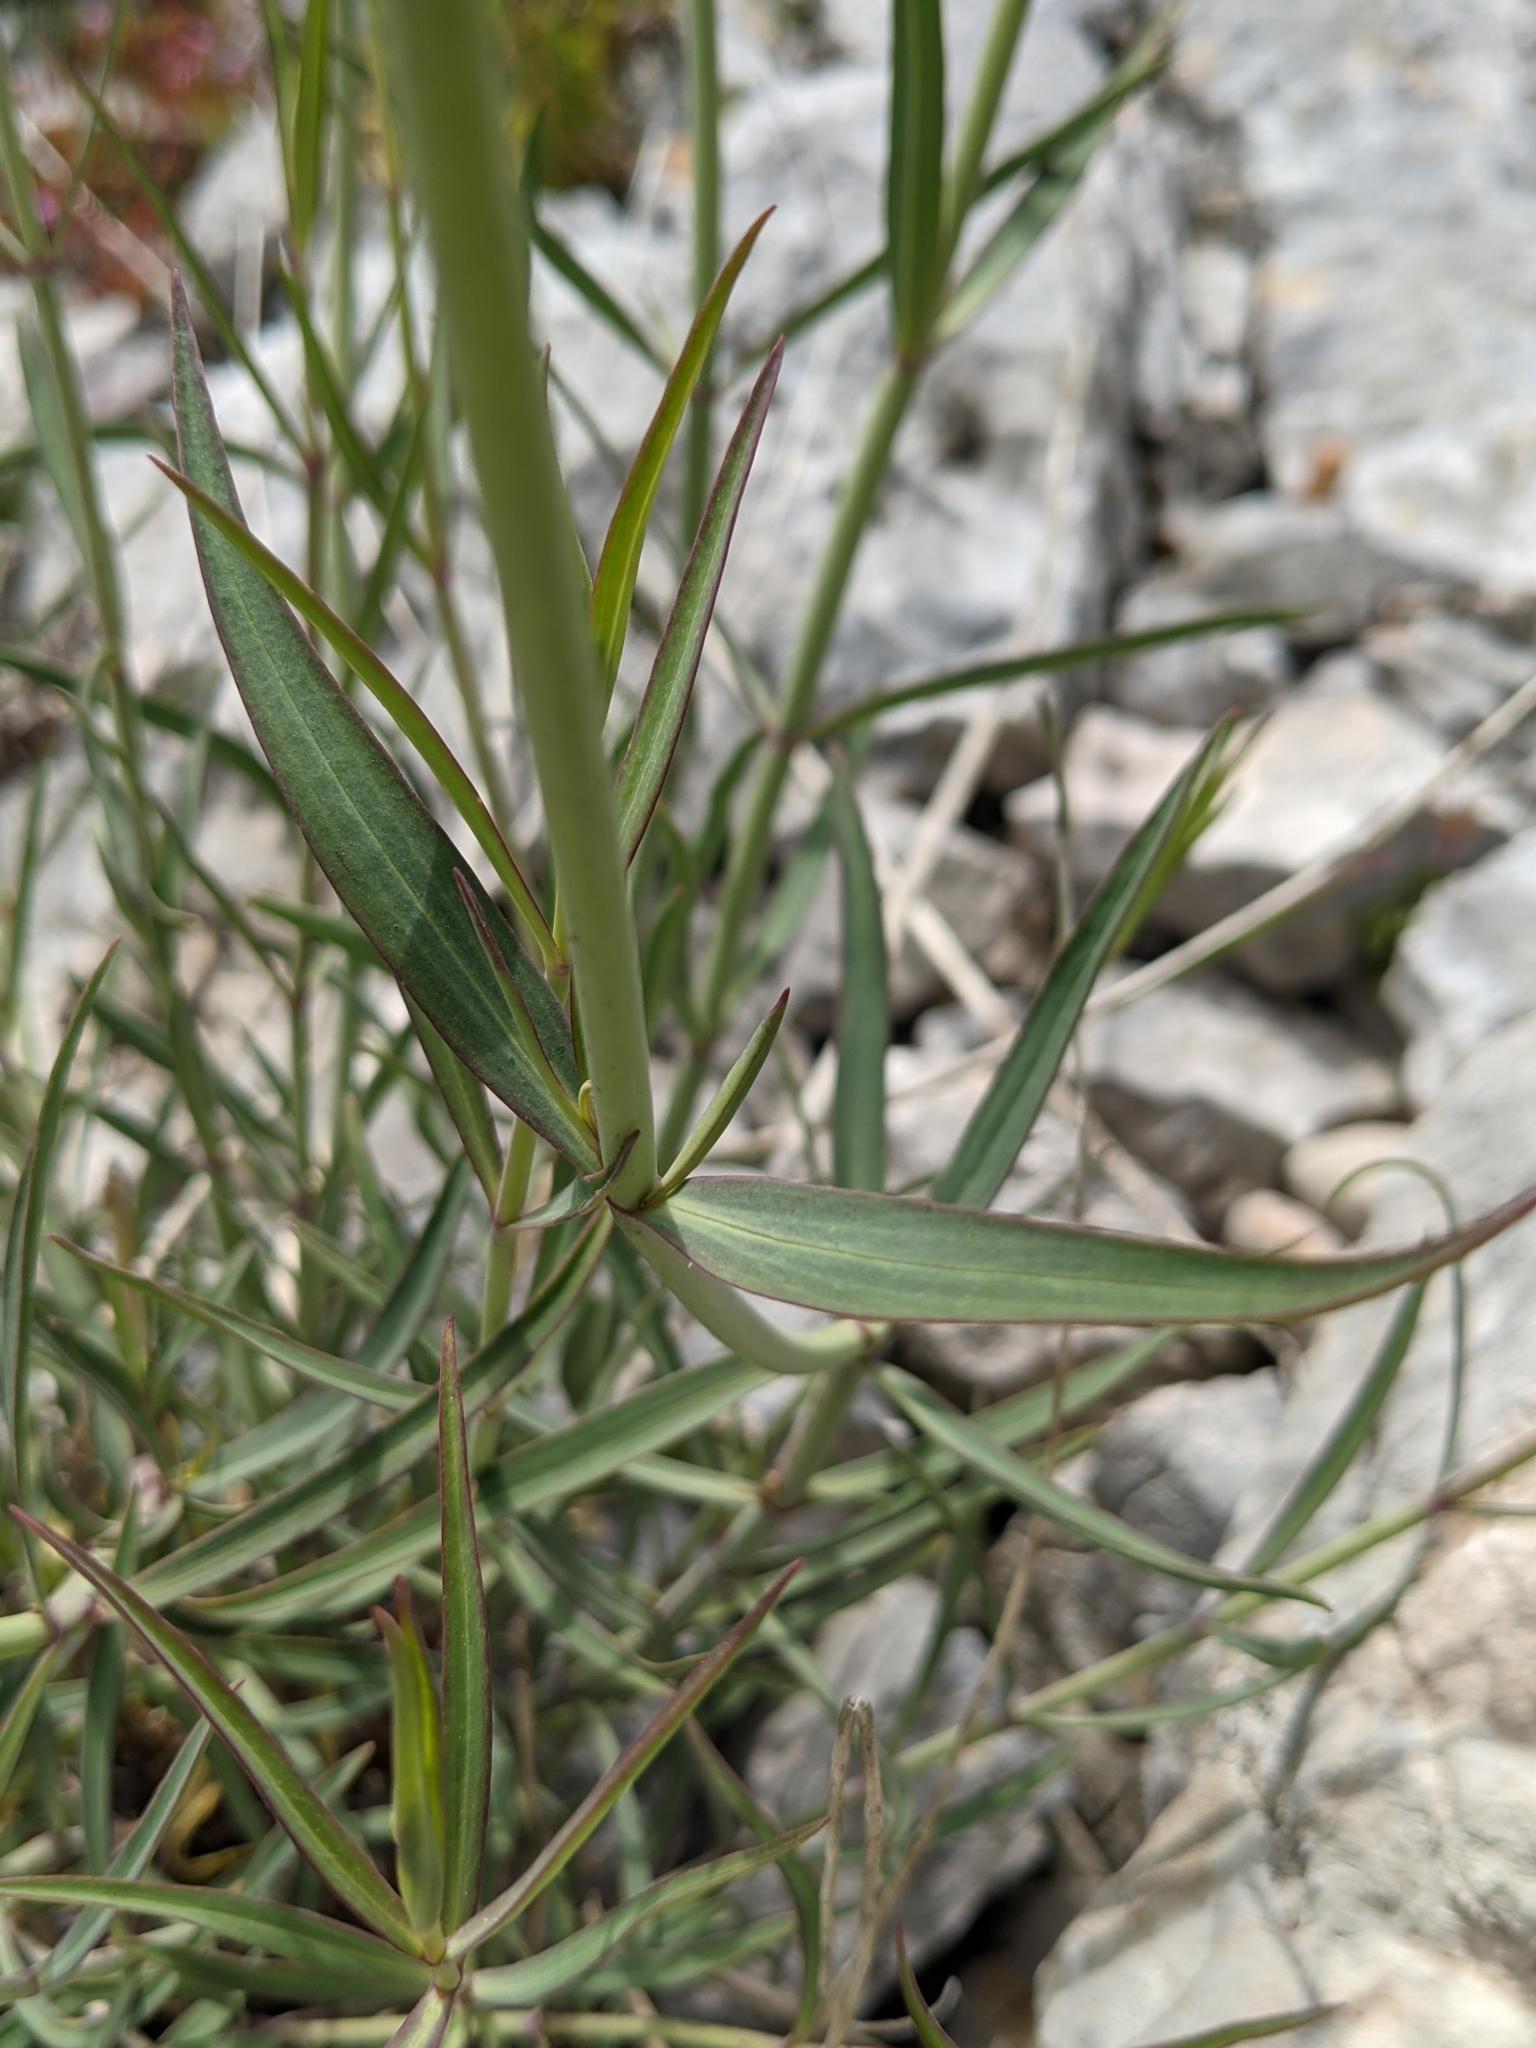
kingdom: Plantae
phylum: Tracheophyta
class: Magnoliopsida
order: Dipsacales
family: Caprifoliaceae
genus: Centranthus
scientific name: Centranthus lecoqii
